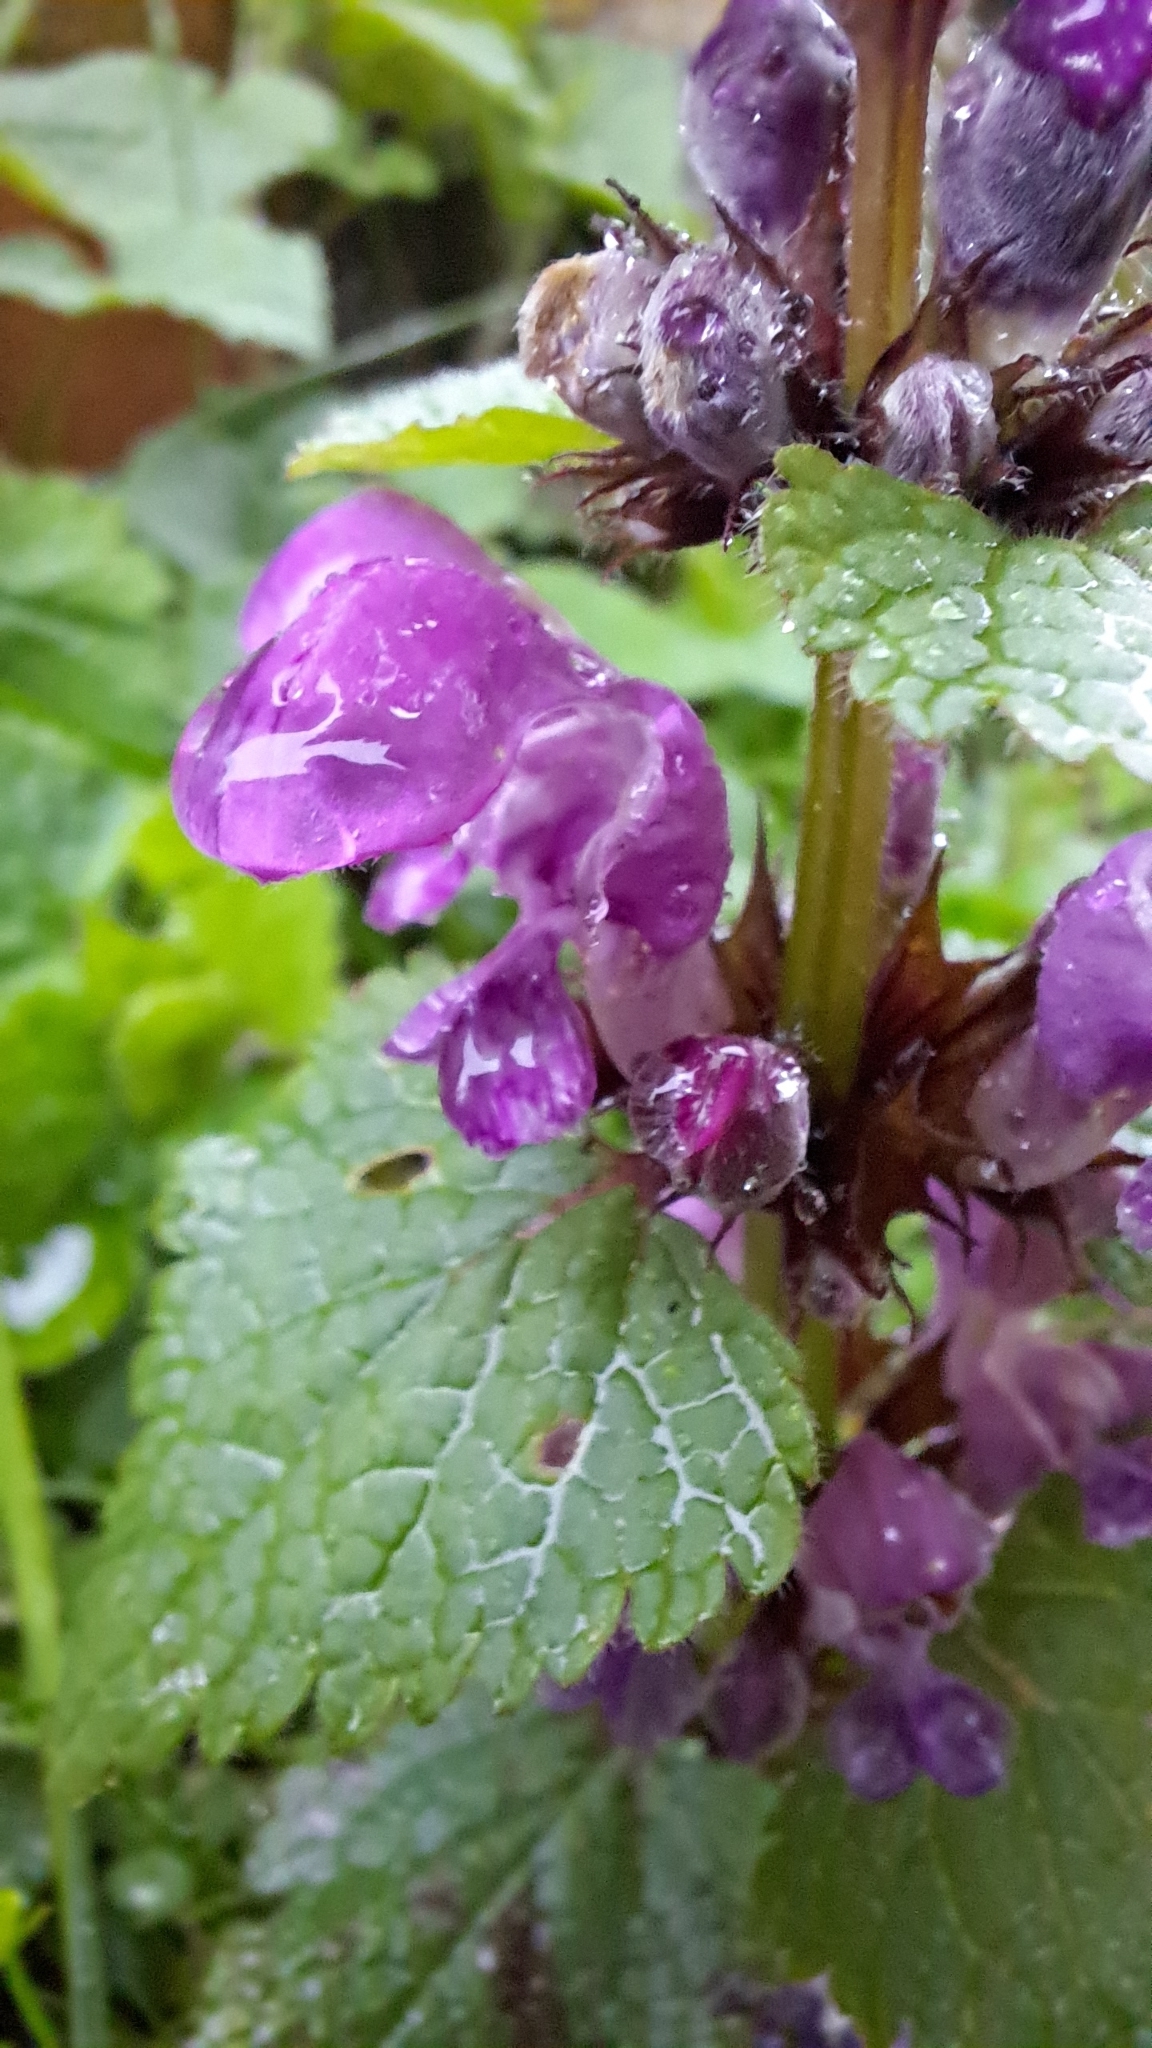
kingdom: Plantae
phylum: Tracheophyta
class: Magnoliopsida
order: Lamiales
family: Lamiaceae
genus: Lamium
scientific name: Lamium maculatum
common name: Spotted dead-nettle
